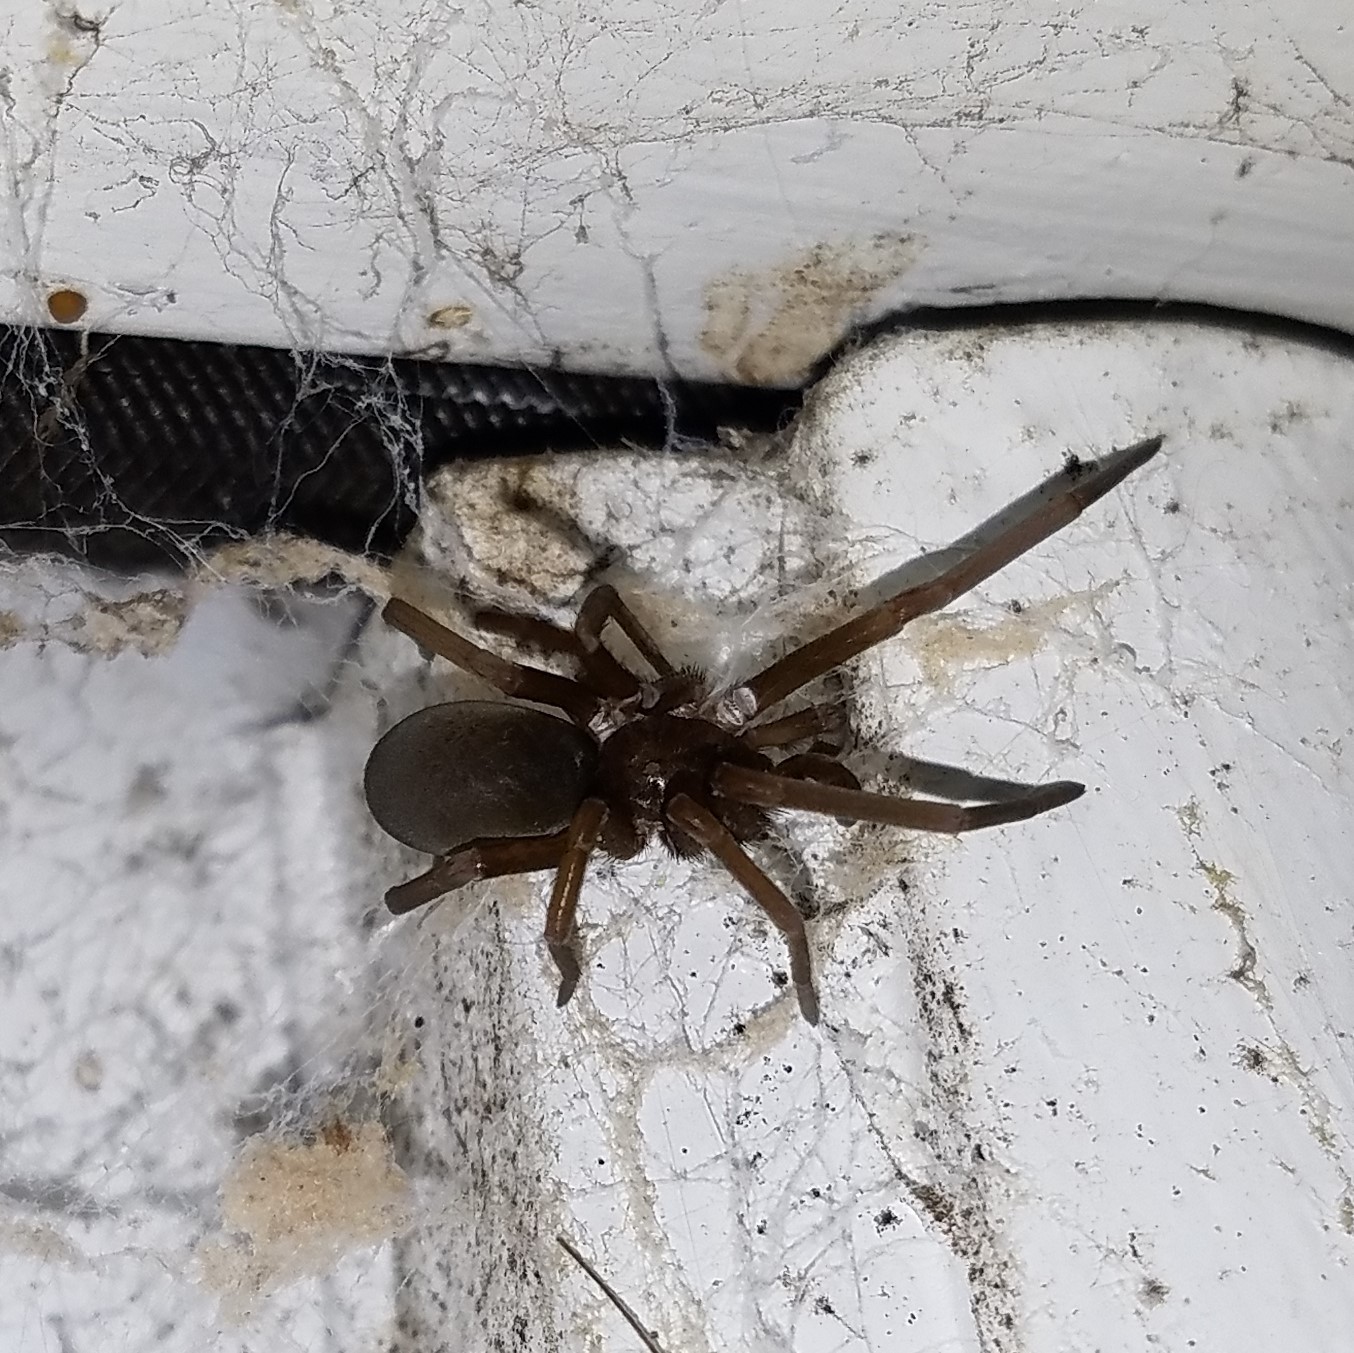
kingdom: Animalia
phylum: Arthropoda
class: Arachnida
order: Araneae
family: Filistatidae
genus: Kukulcania
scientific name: Kukulcania hibernalis
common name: Crevice weaver
